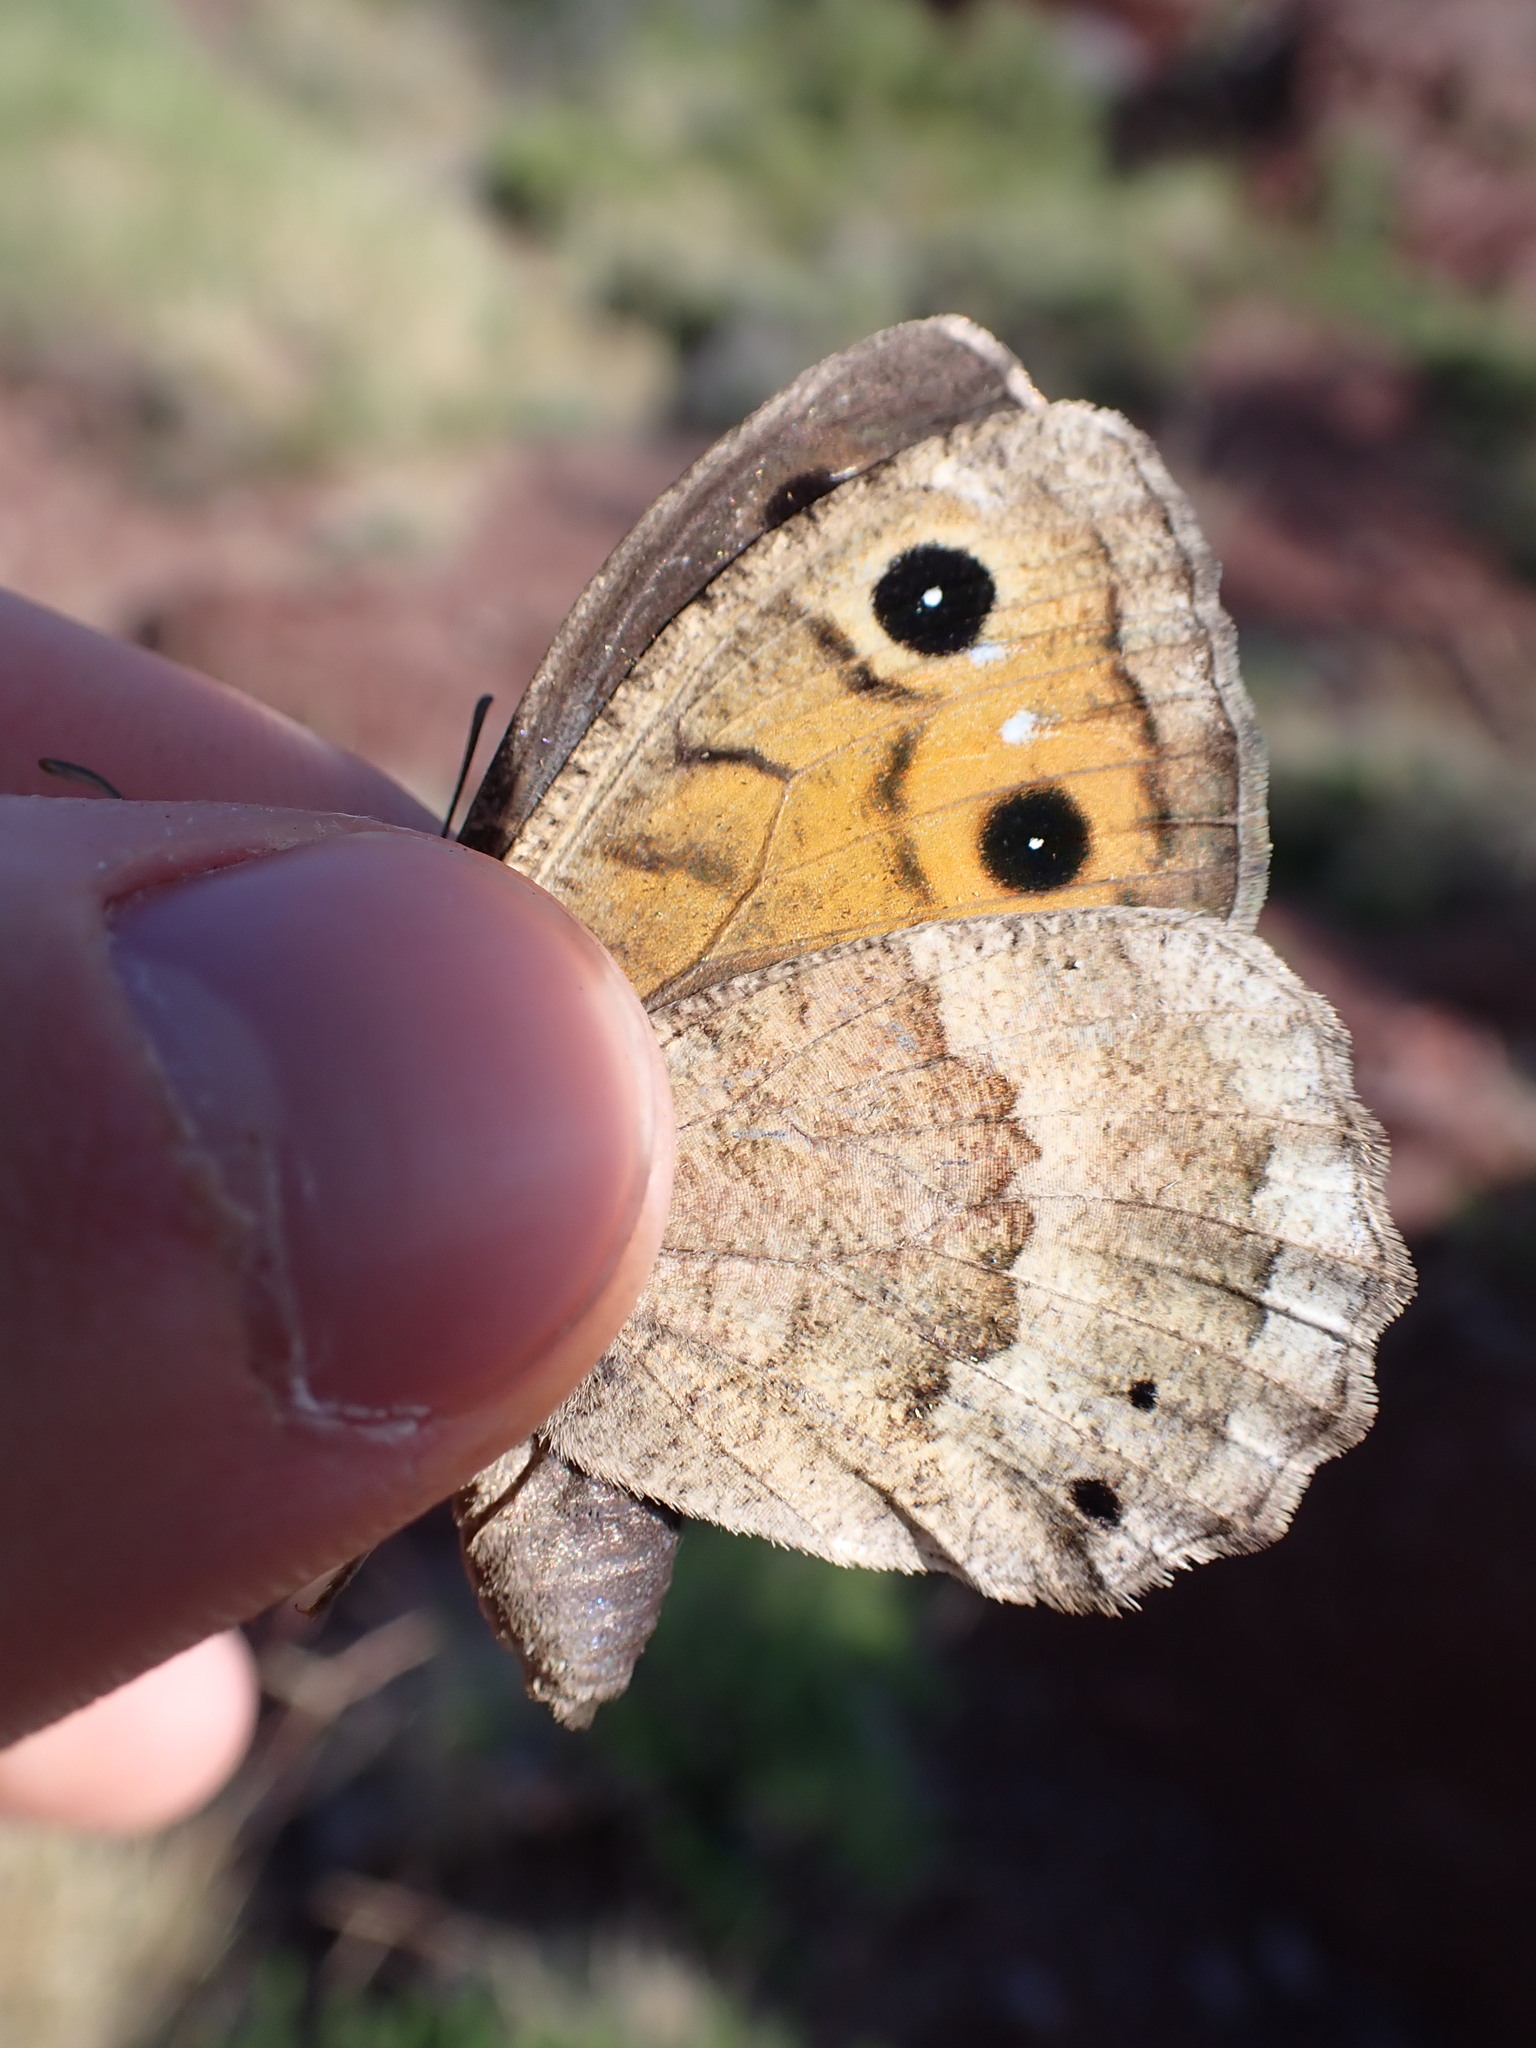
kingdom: Animalia
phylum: Arthropoda
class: Insecta
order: Lepidoptera
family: Nymphalidae
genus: Satyrus
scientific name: Satyrus ferula
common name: Great sooty satyr
